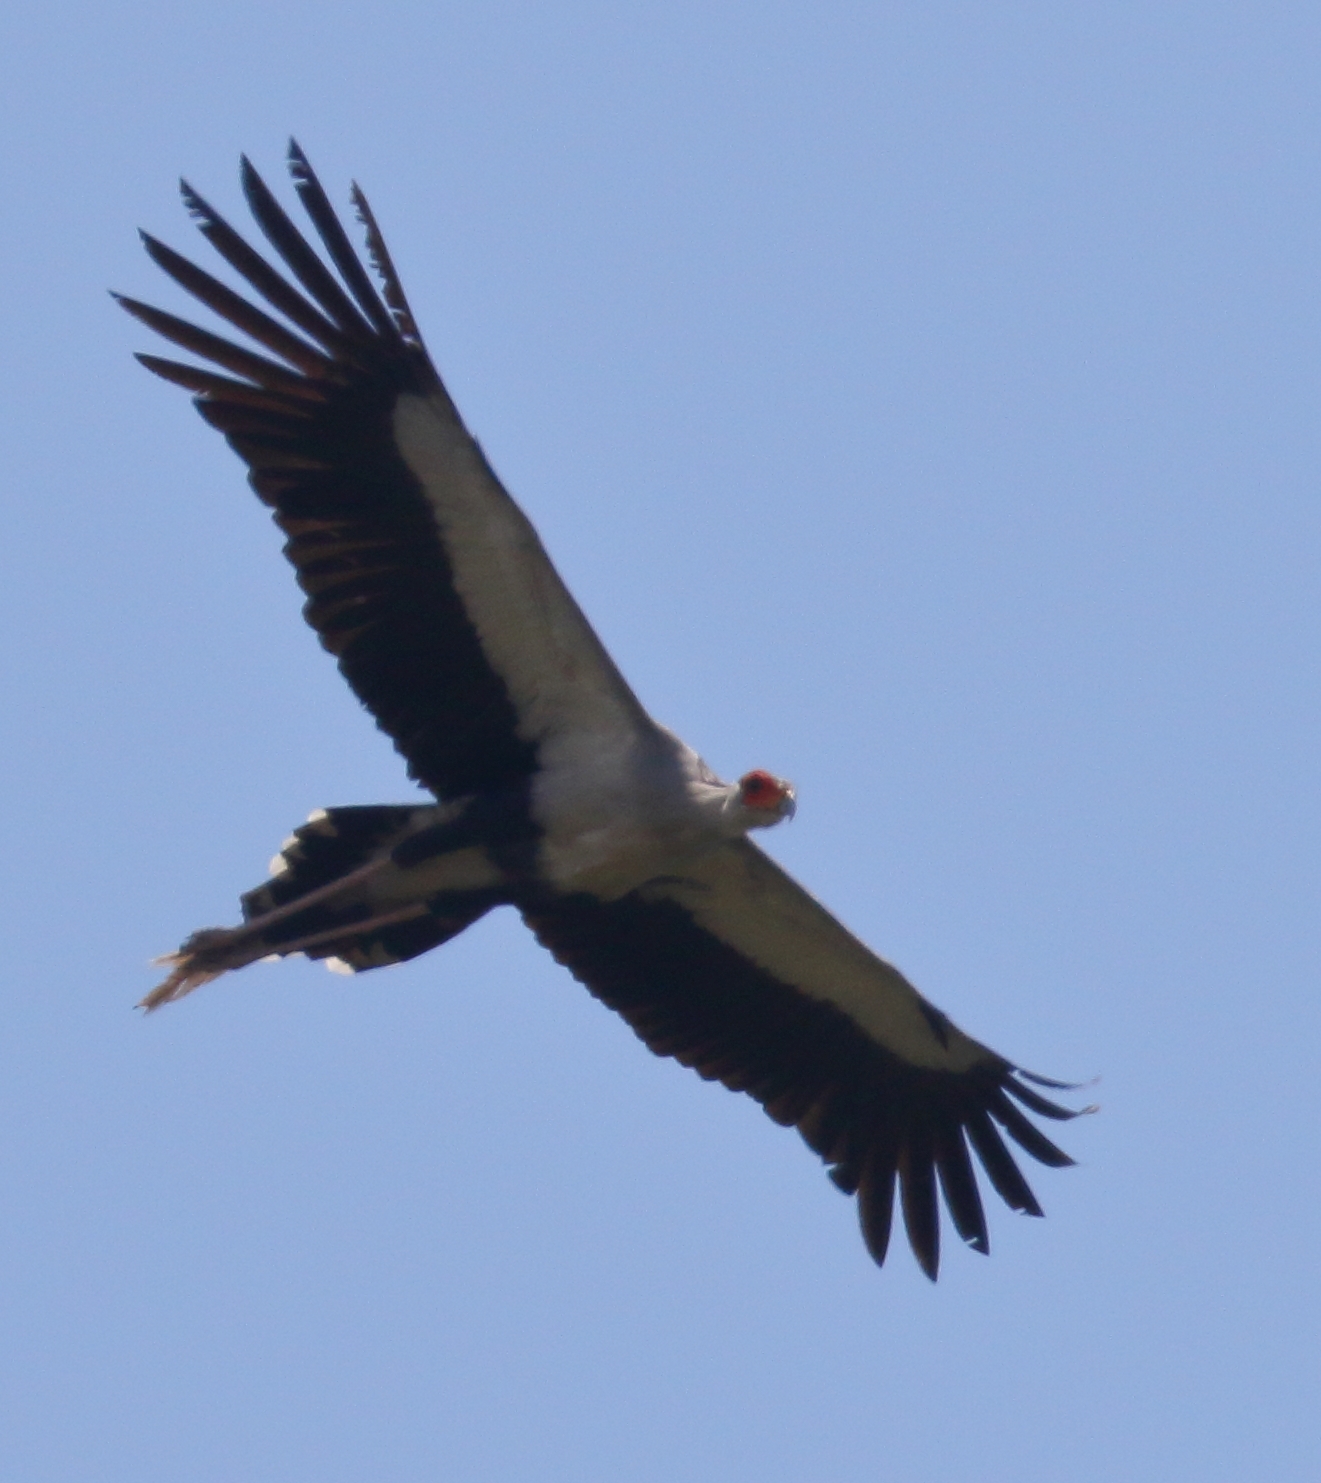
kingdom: Animalia
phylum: Chordata
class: Aves
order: Accipitriformes
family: Sagittariidae
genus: Sagittarius
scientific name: Sagittarius serpentarius
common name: Secretarybird
